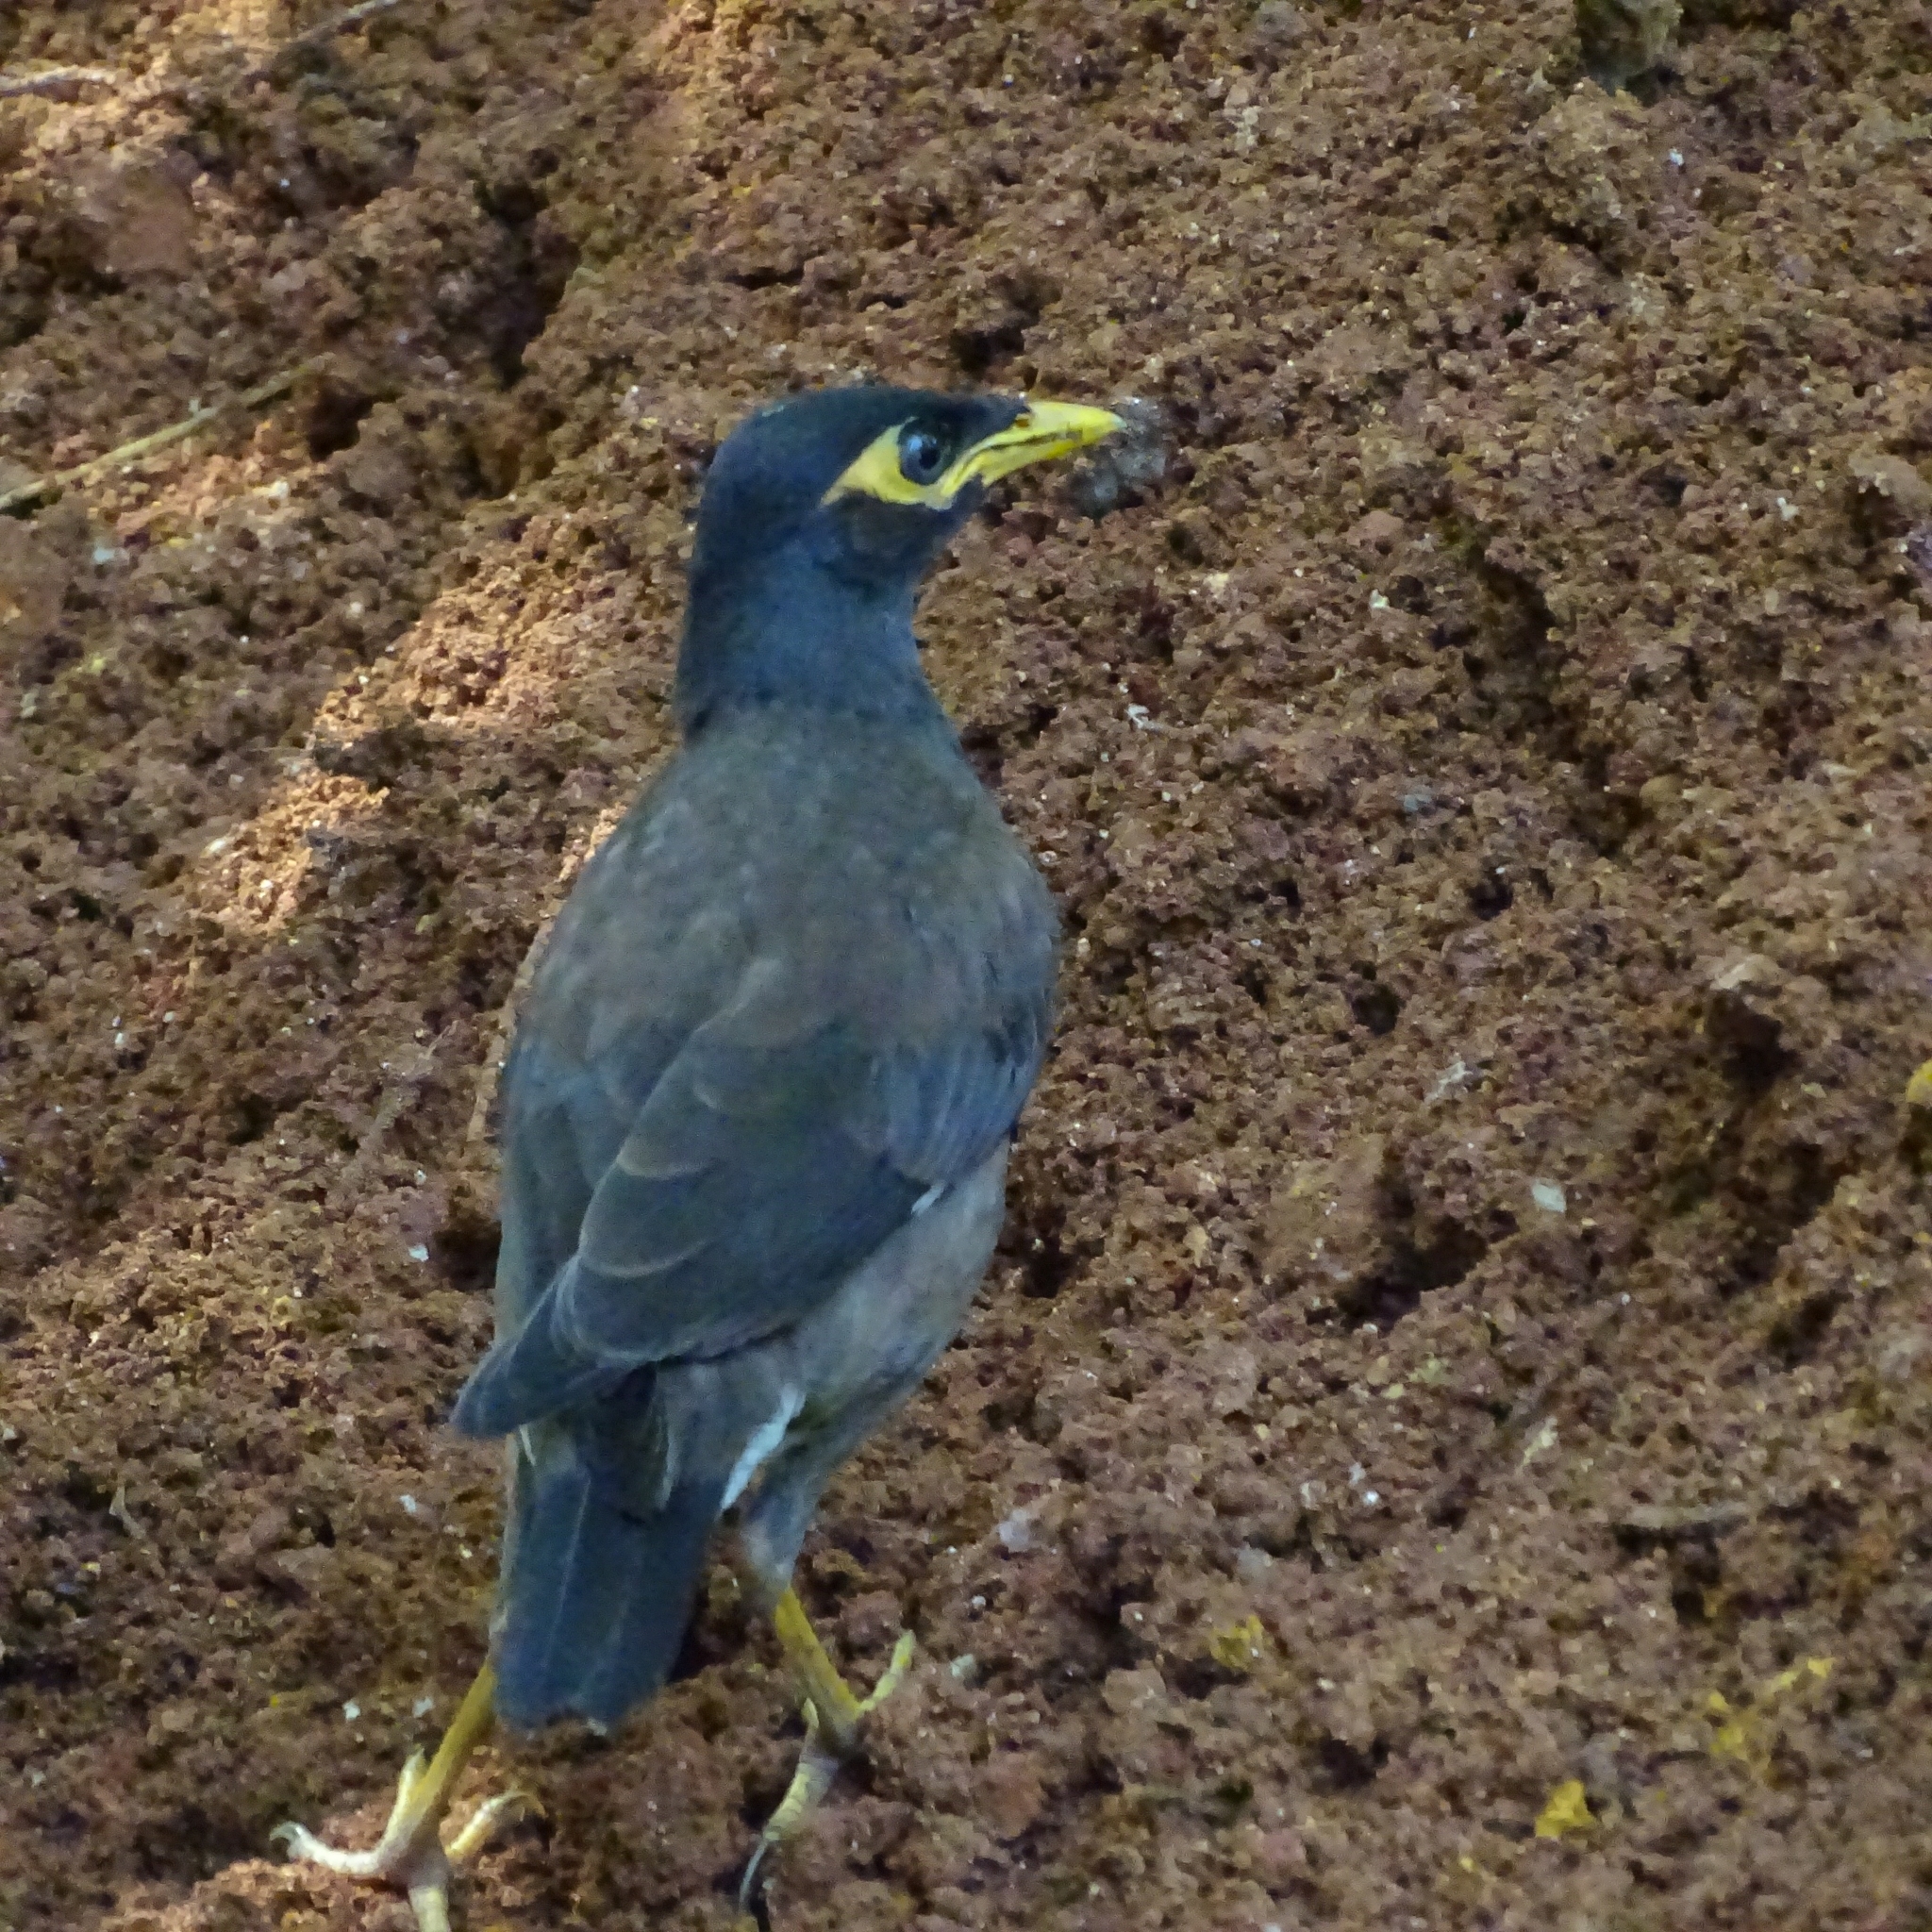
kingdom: Animalia
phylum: Chordata
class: Aves
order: Passeriformes
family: Sturnidae
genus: Acridotheres
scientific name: Acridotheres tristis
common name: Common myna
